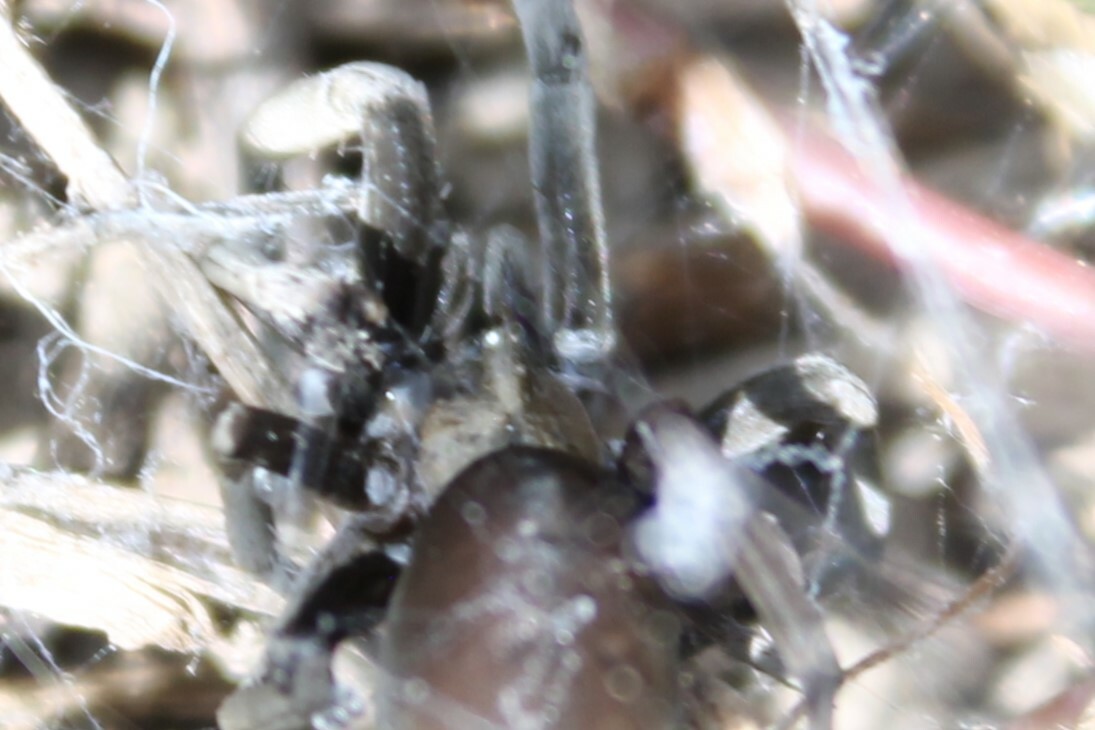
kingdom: Animalia
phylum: Arthropoda
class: Arachnida
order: Araneae
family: Filistatidae
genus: Kukulcania
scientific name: Kukulcania geophila
